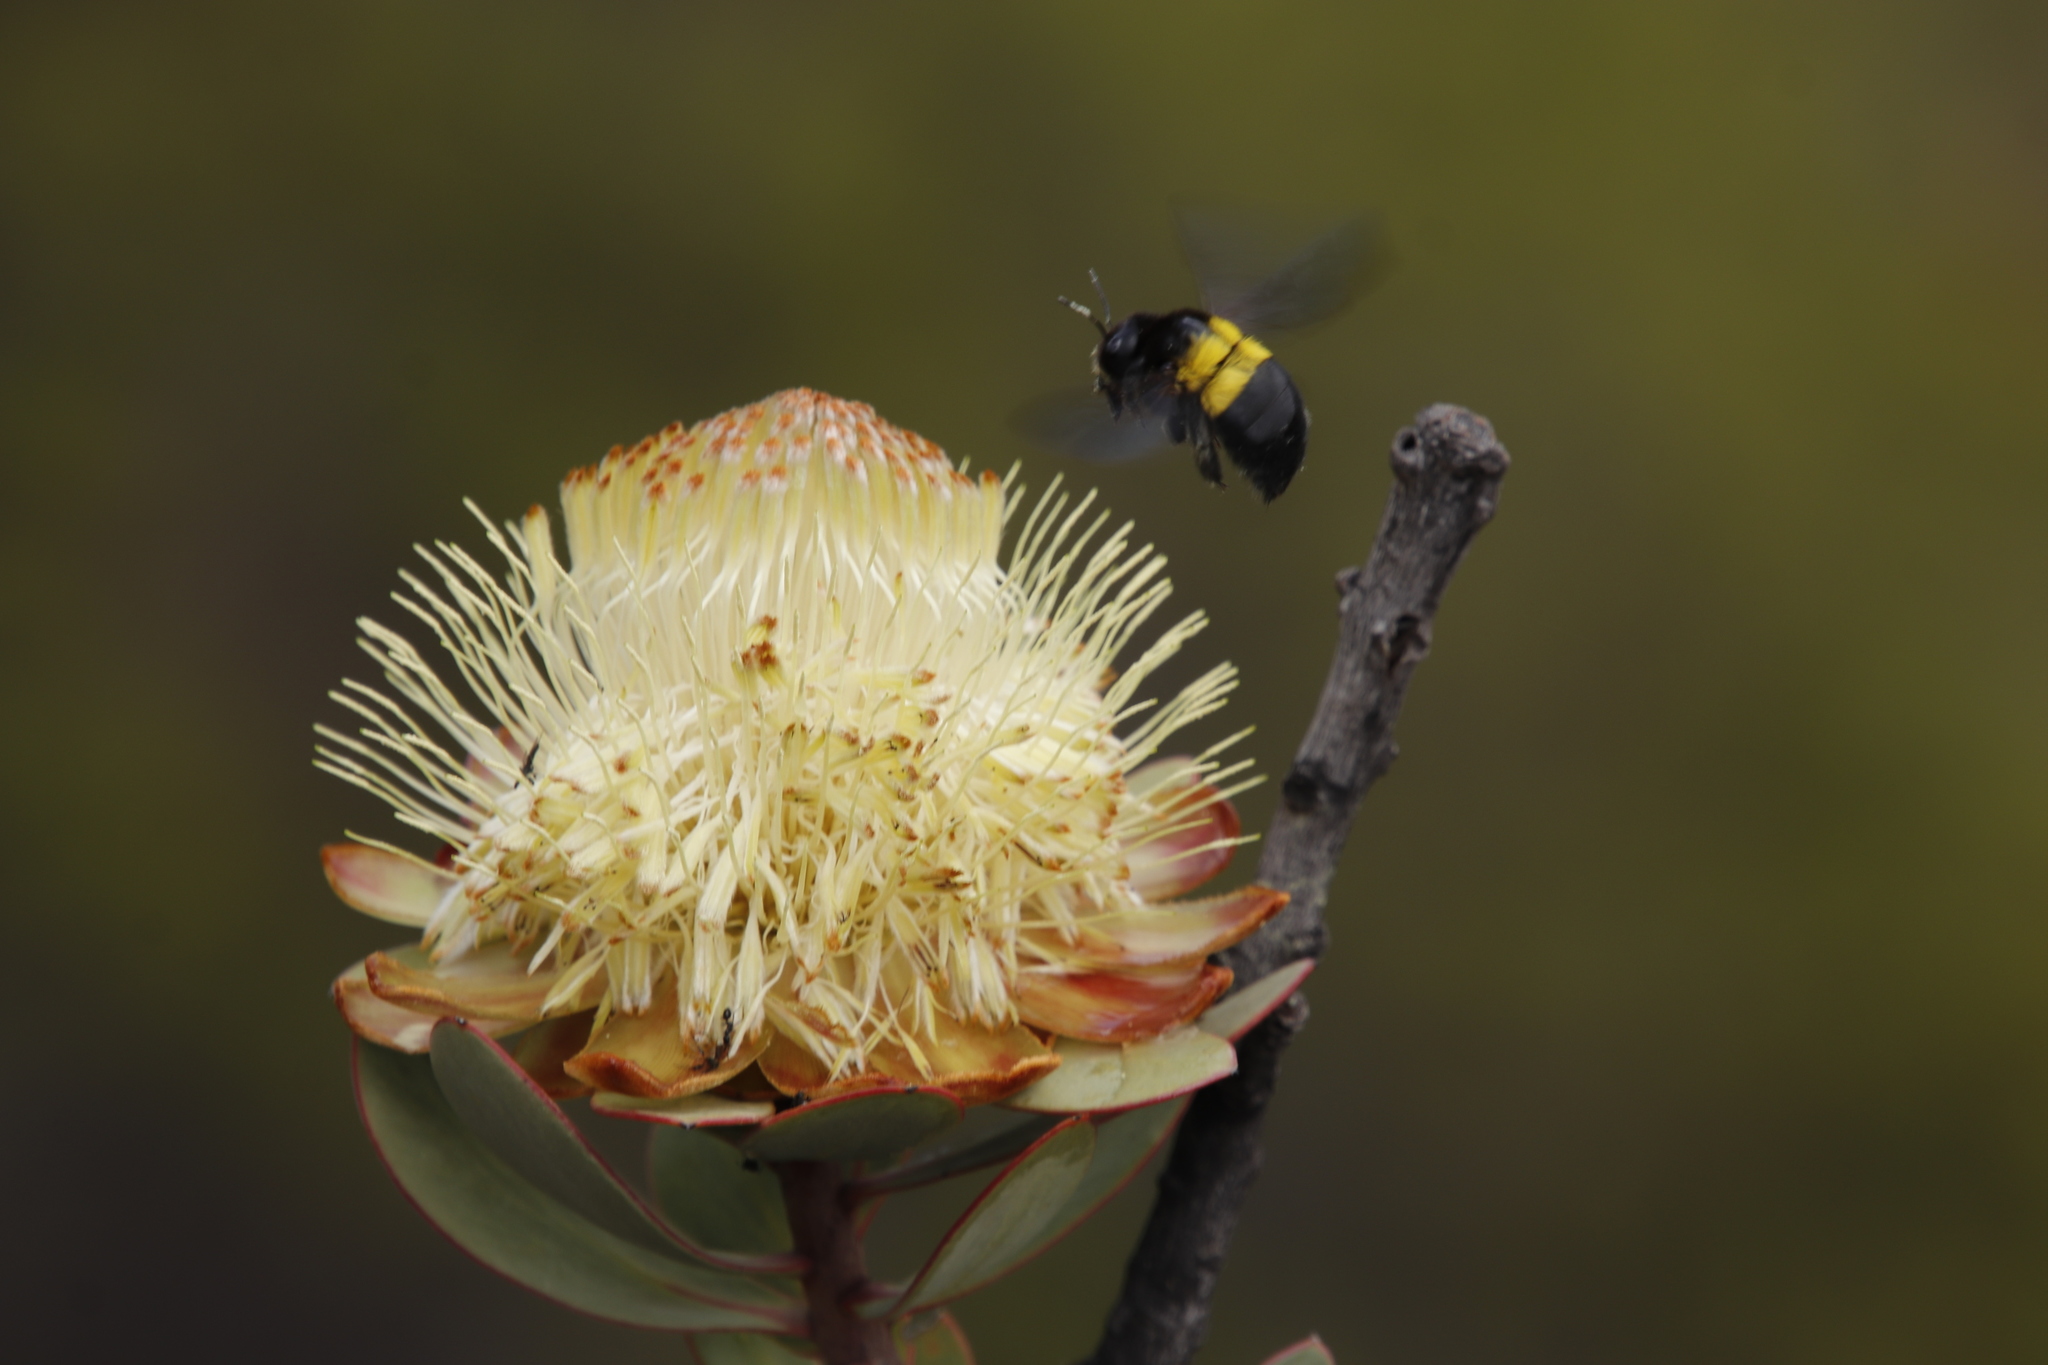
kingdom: Animalia
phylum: Arthropoda
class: Insecta
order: Hymenoptera
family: Apidae
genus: Xylocopa
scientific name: Xylocopa caffra
